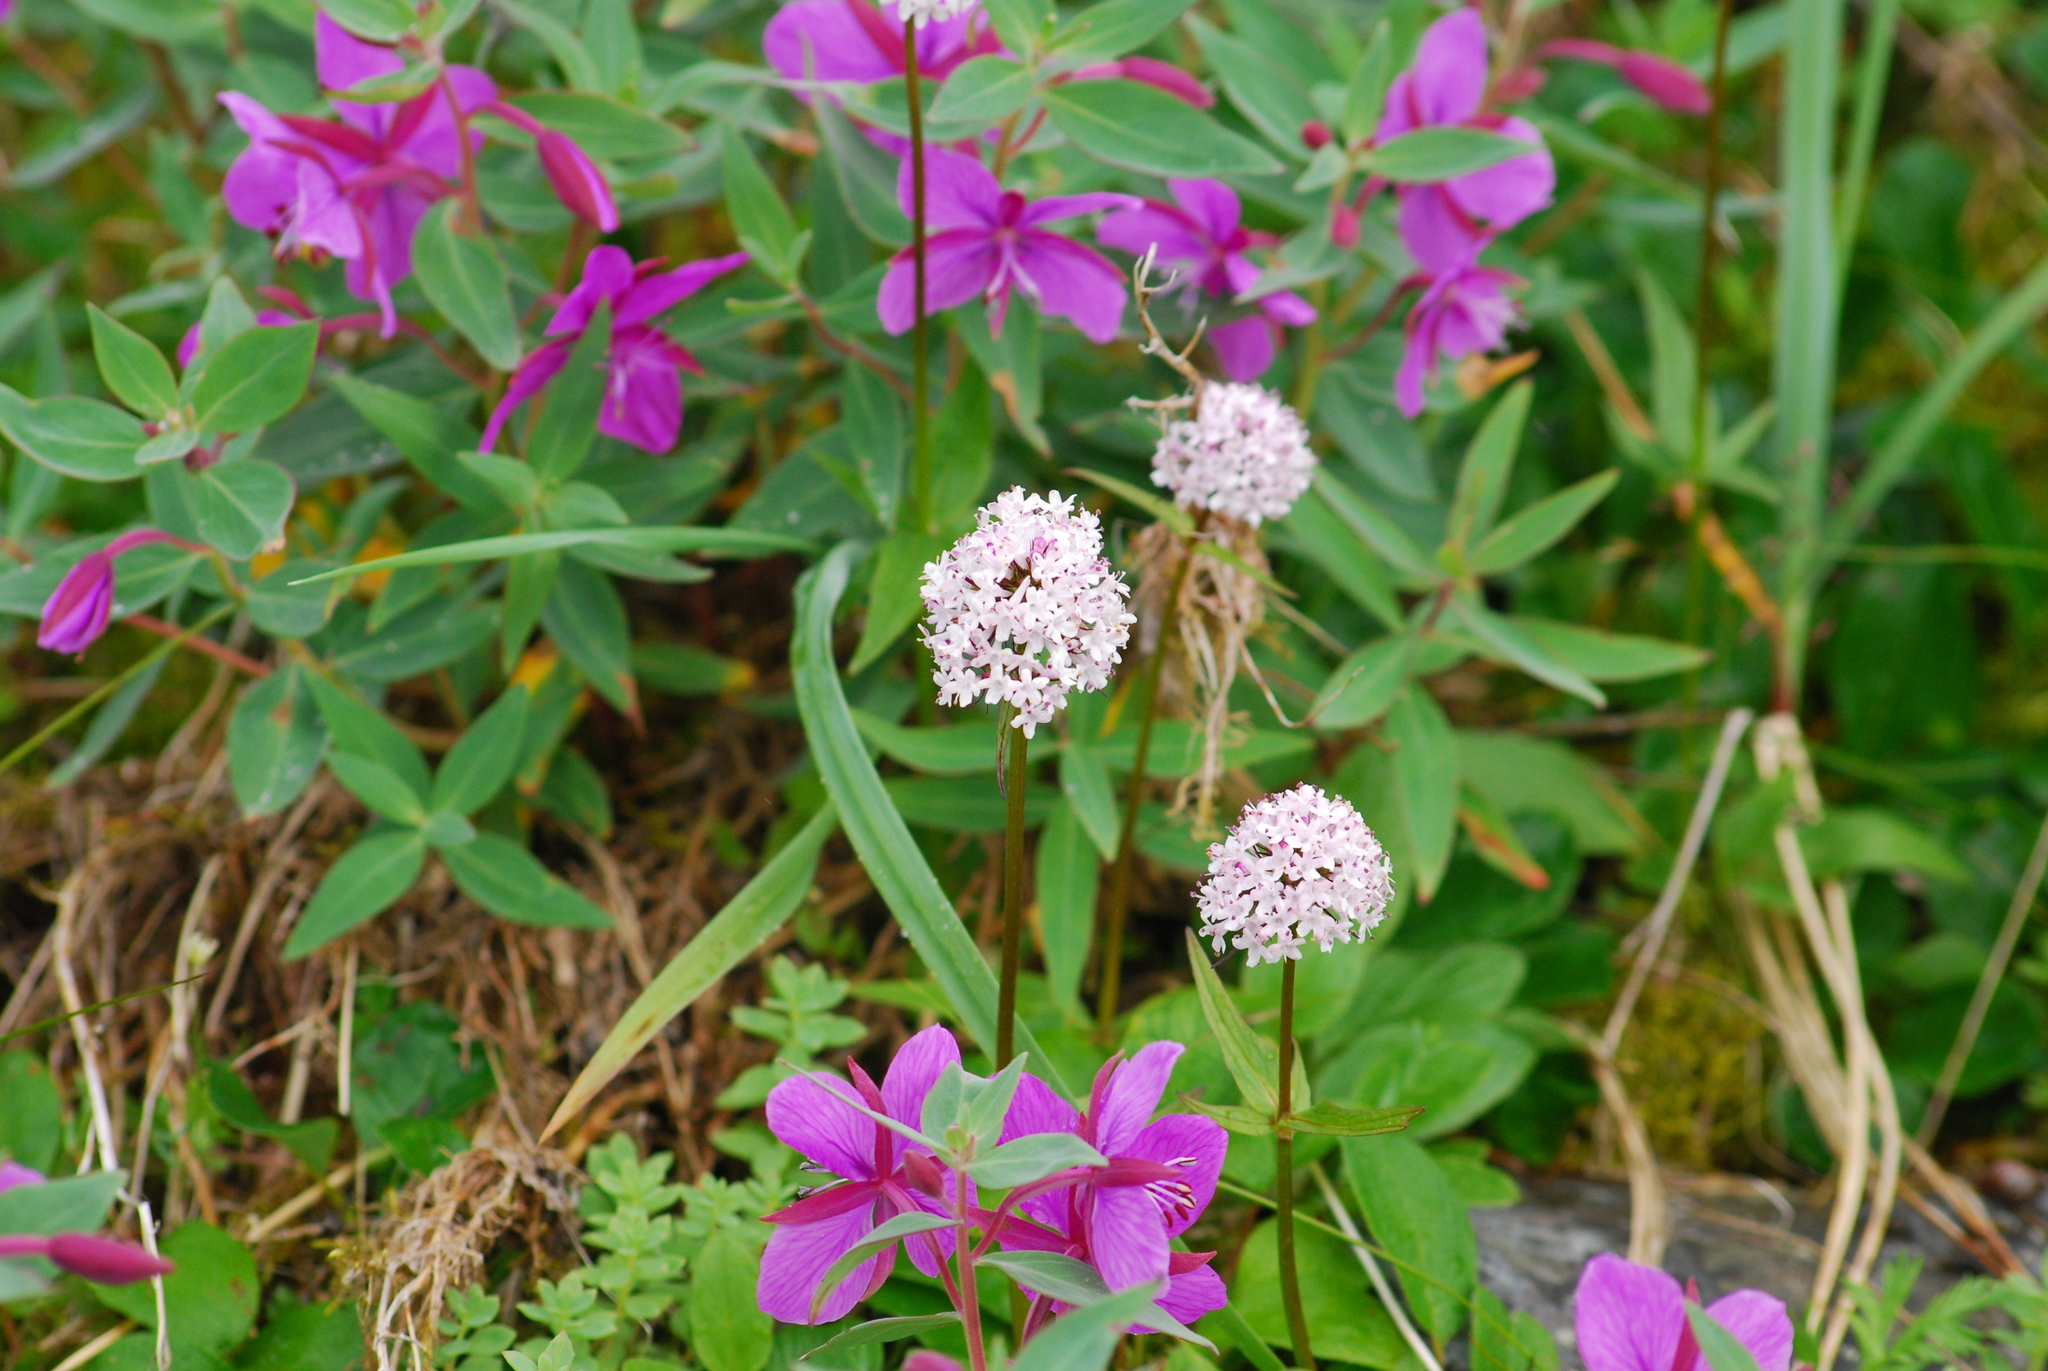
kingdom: Plantae
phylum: Tracheophyta
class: Magnoliopsida
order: Dipsacales
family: Caprifoliaceae
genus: Valeriana
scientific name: Valeriana capitata
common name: Capitate valerian
